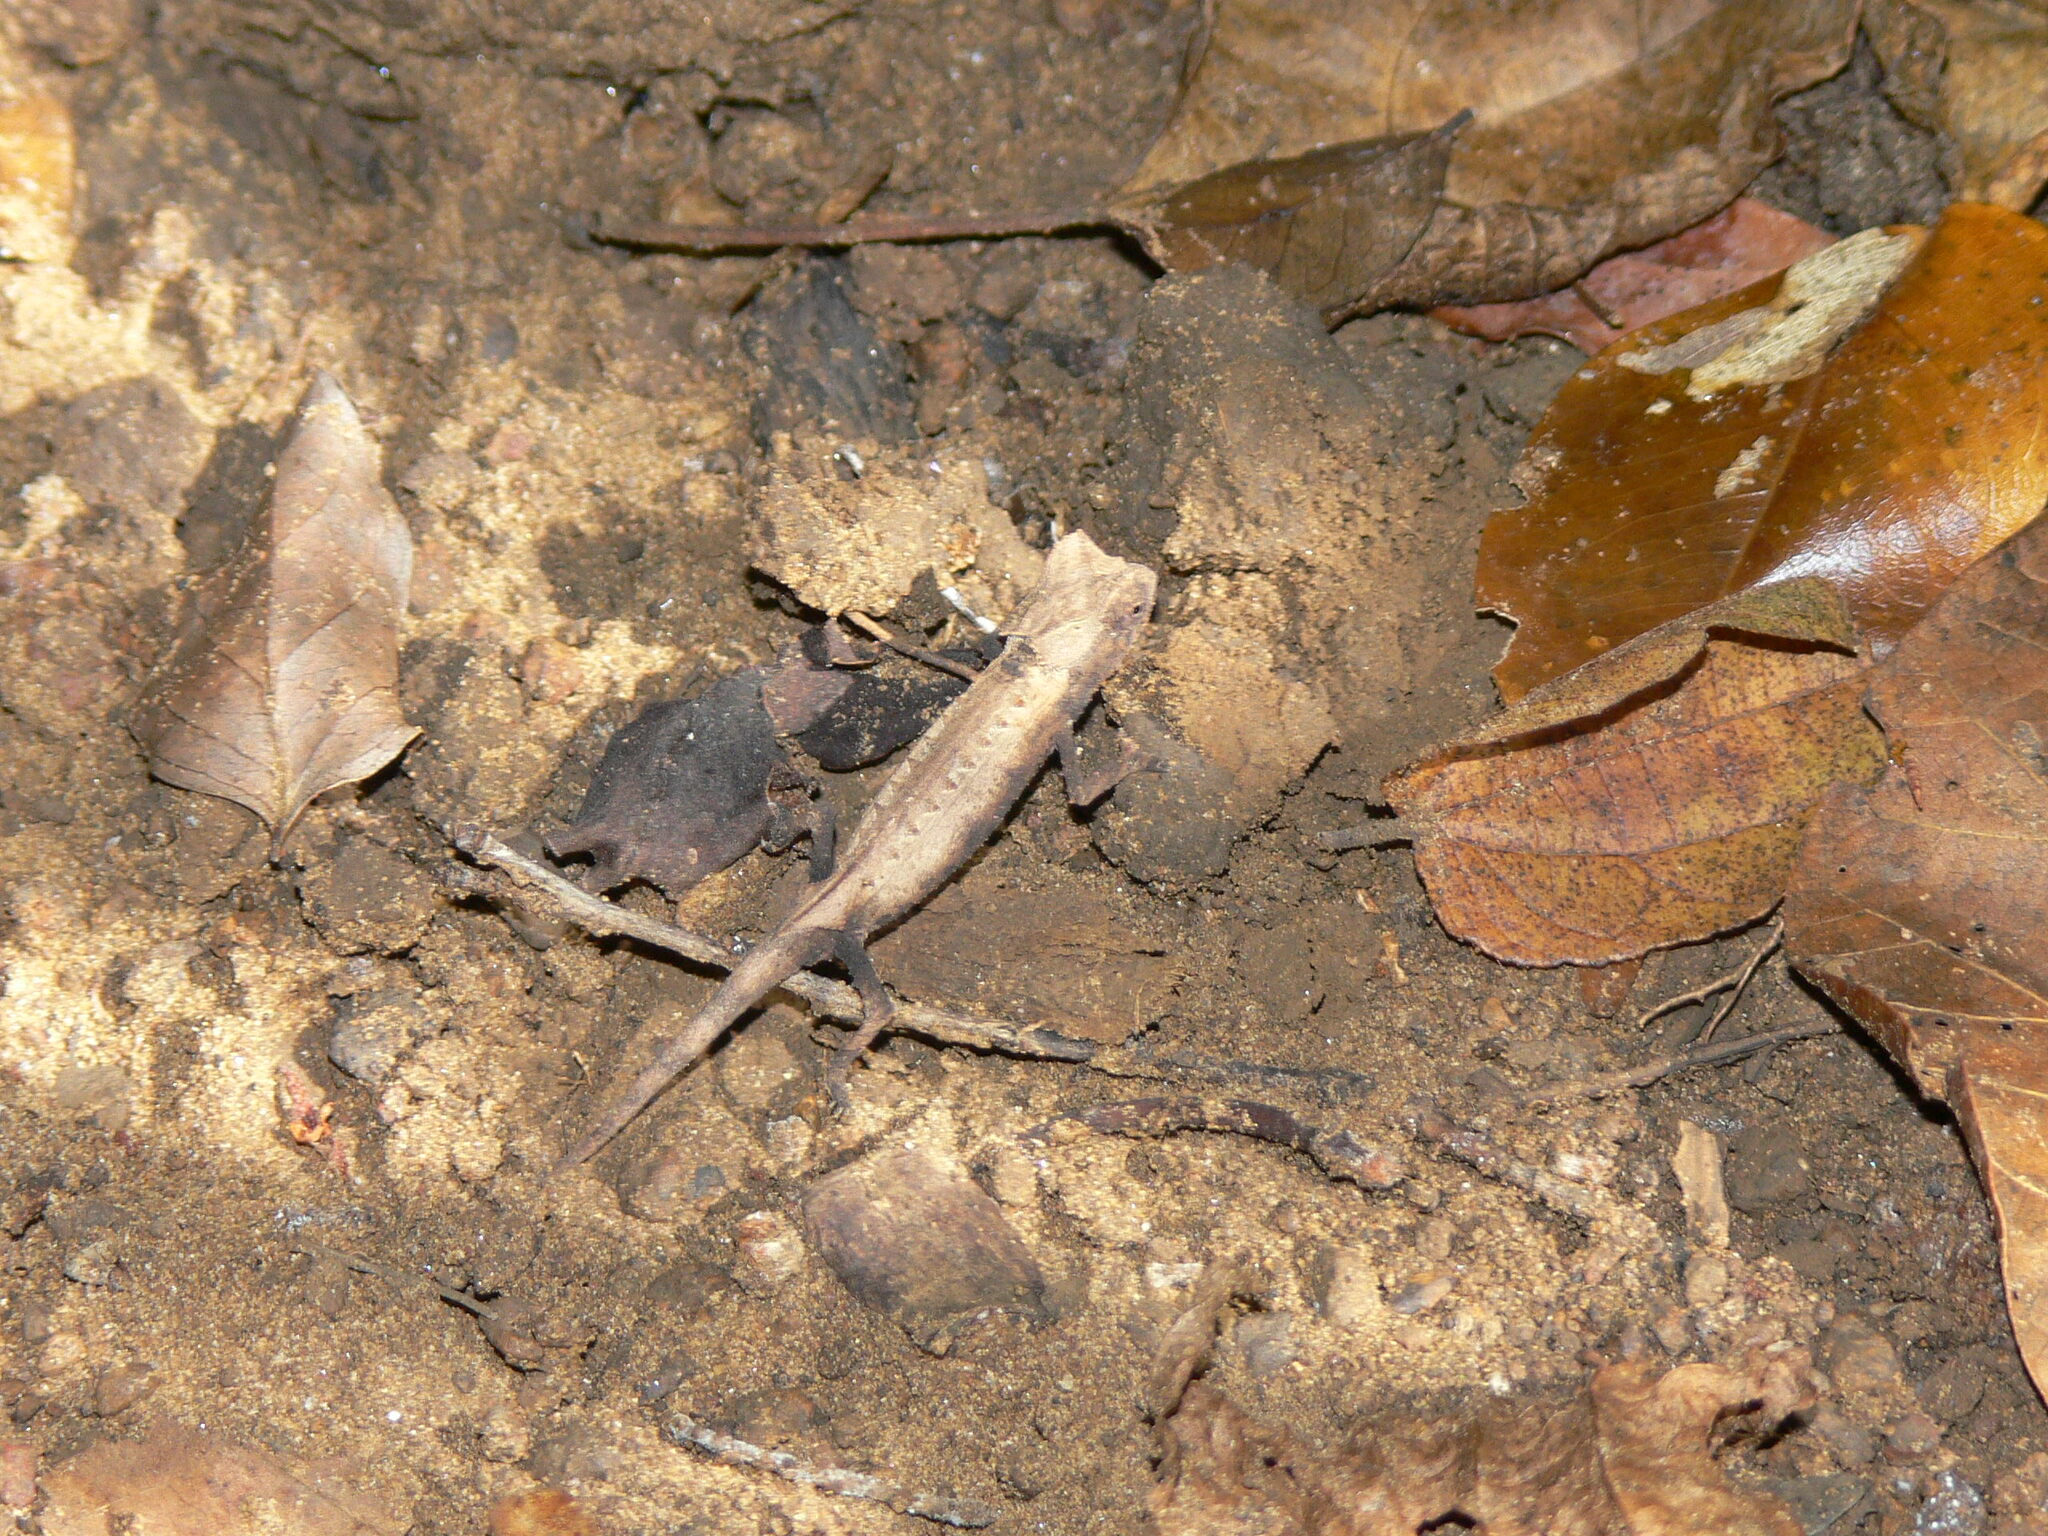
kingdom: Animalia
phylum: Chordata
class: Squamata
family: Chamaeleonidae
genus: Brookesia
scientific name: Brookesia stumpffi
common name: Plated leaf chameleon
